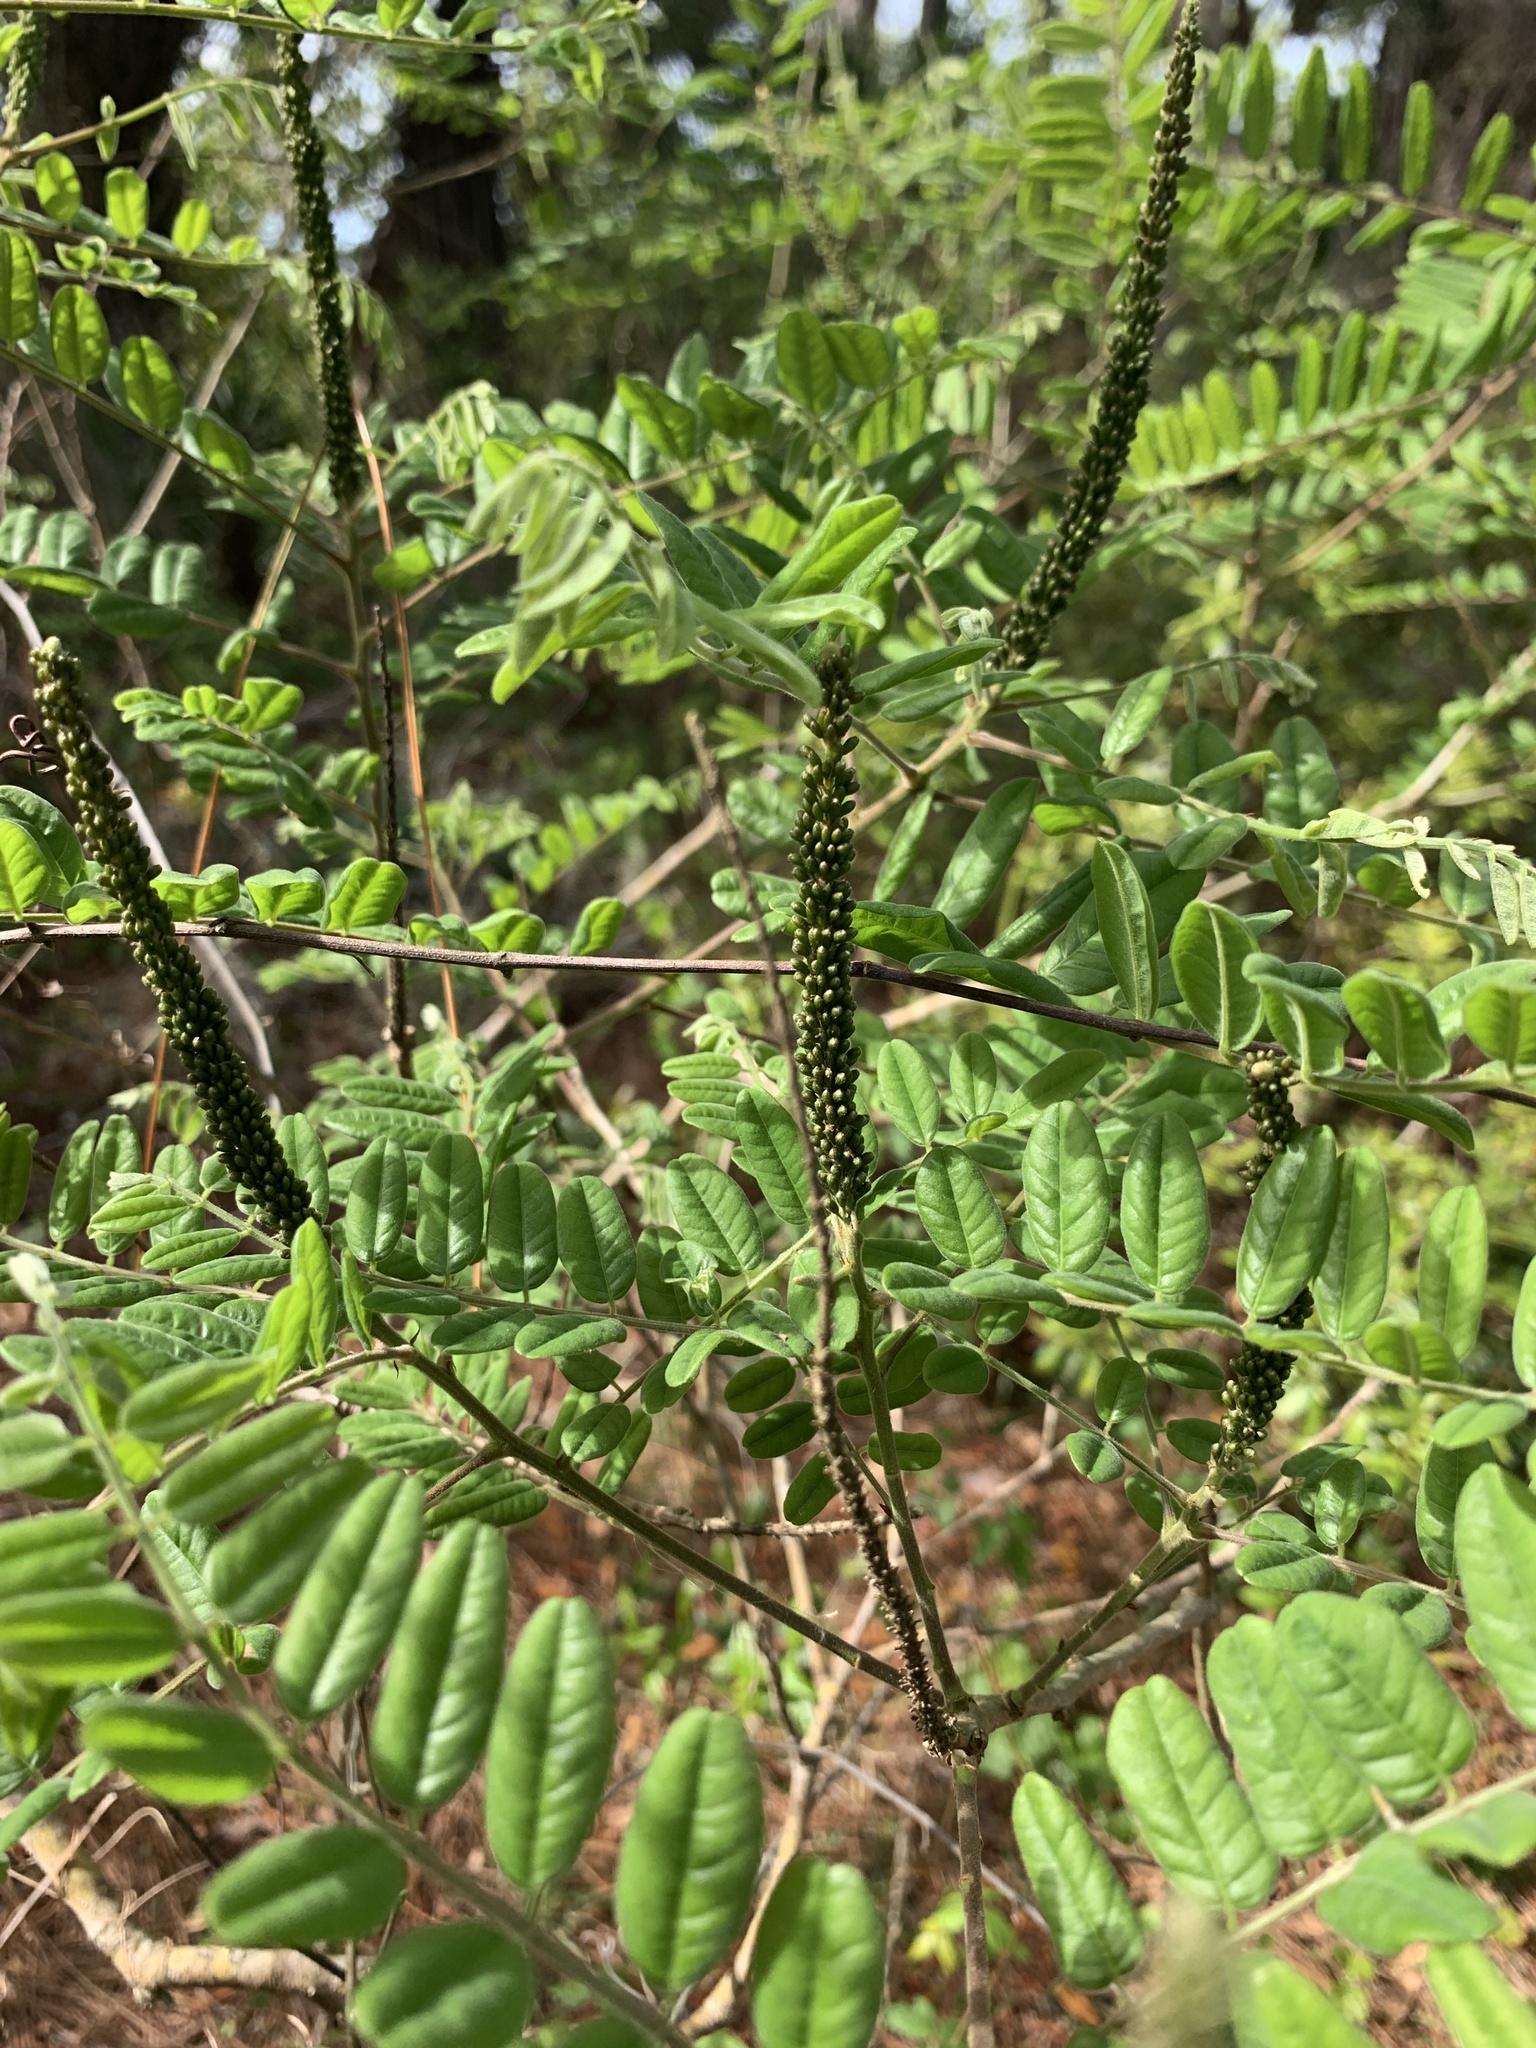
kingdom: Plantae
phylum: Tracheophyta
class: Magnoliopsida
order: Fabales
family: Fabaceae
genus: Amorpha
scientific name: Amorpha fruticosa
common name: False indigo
